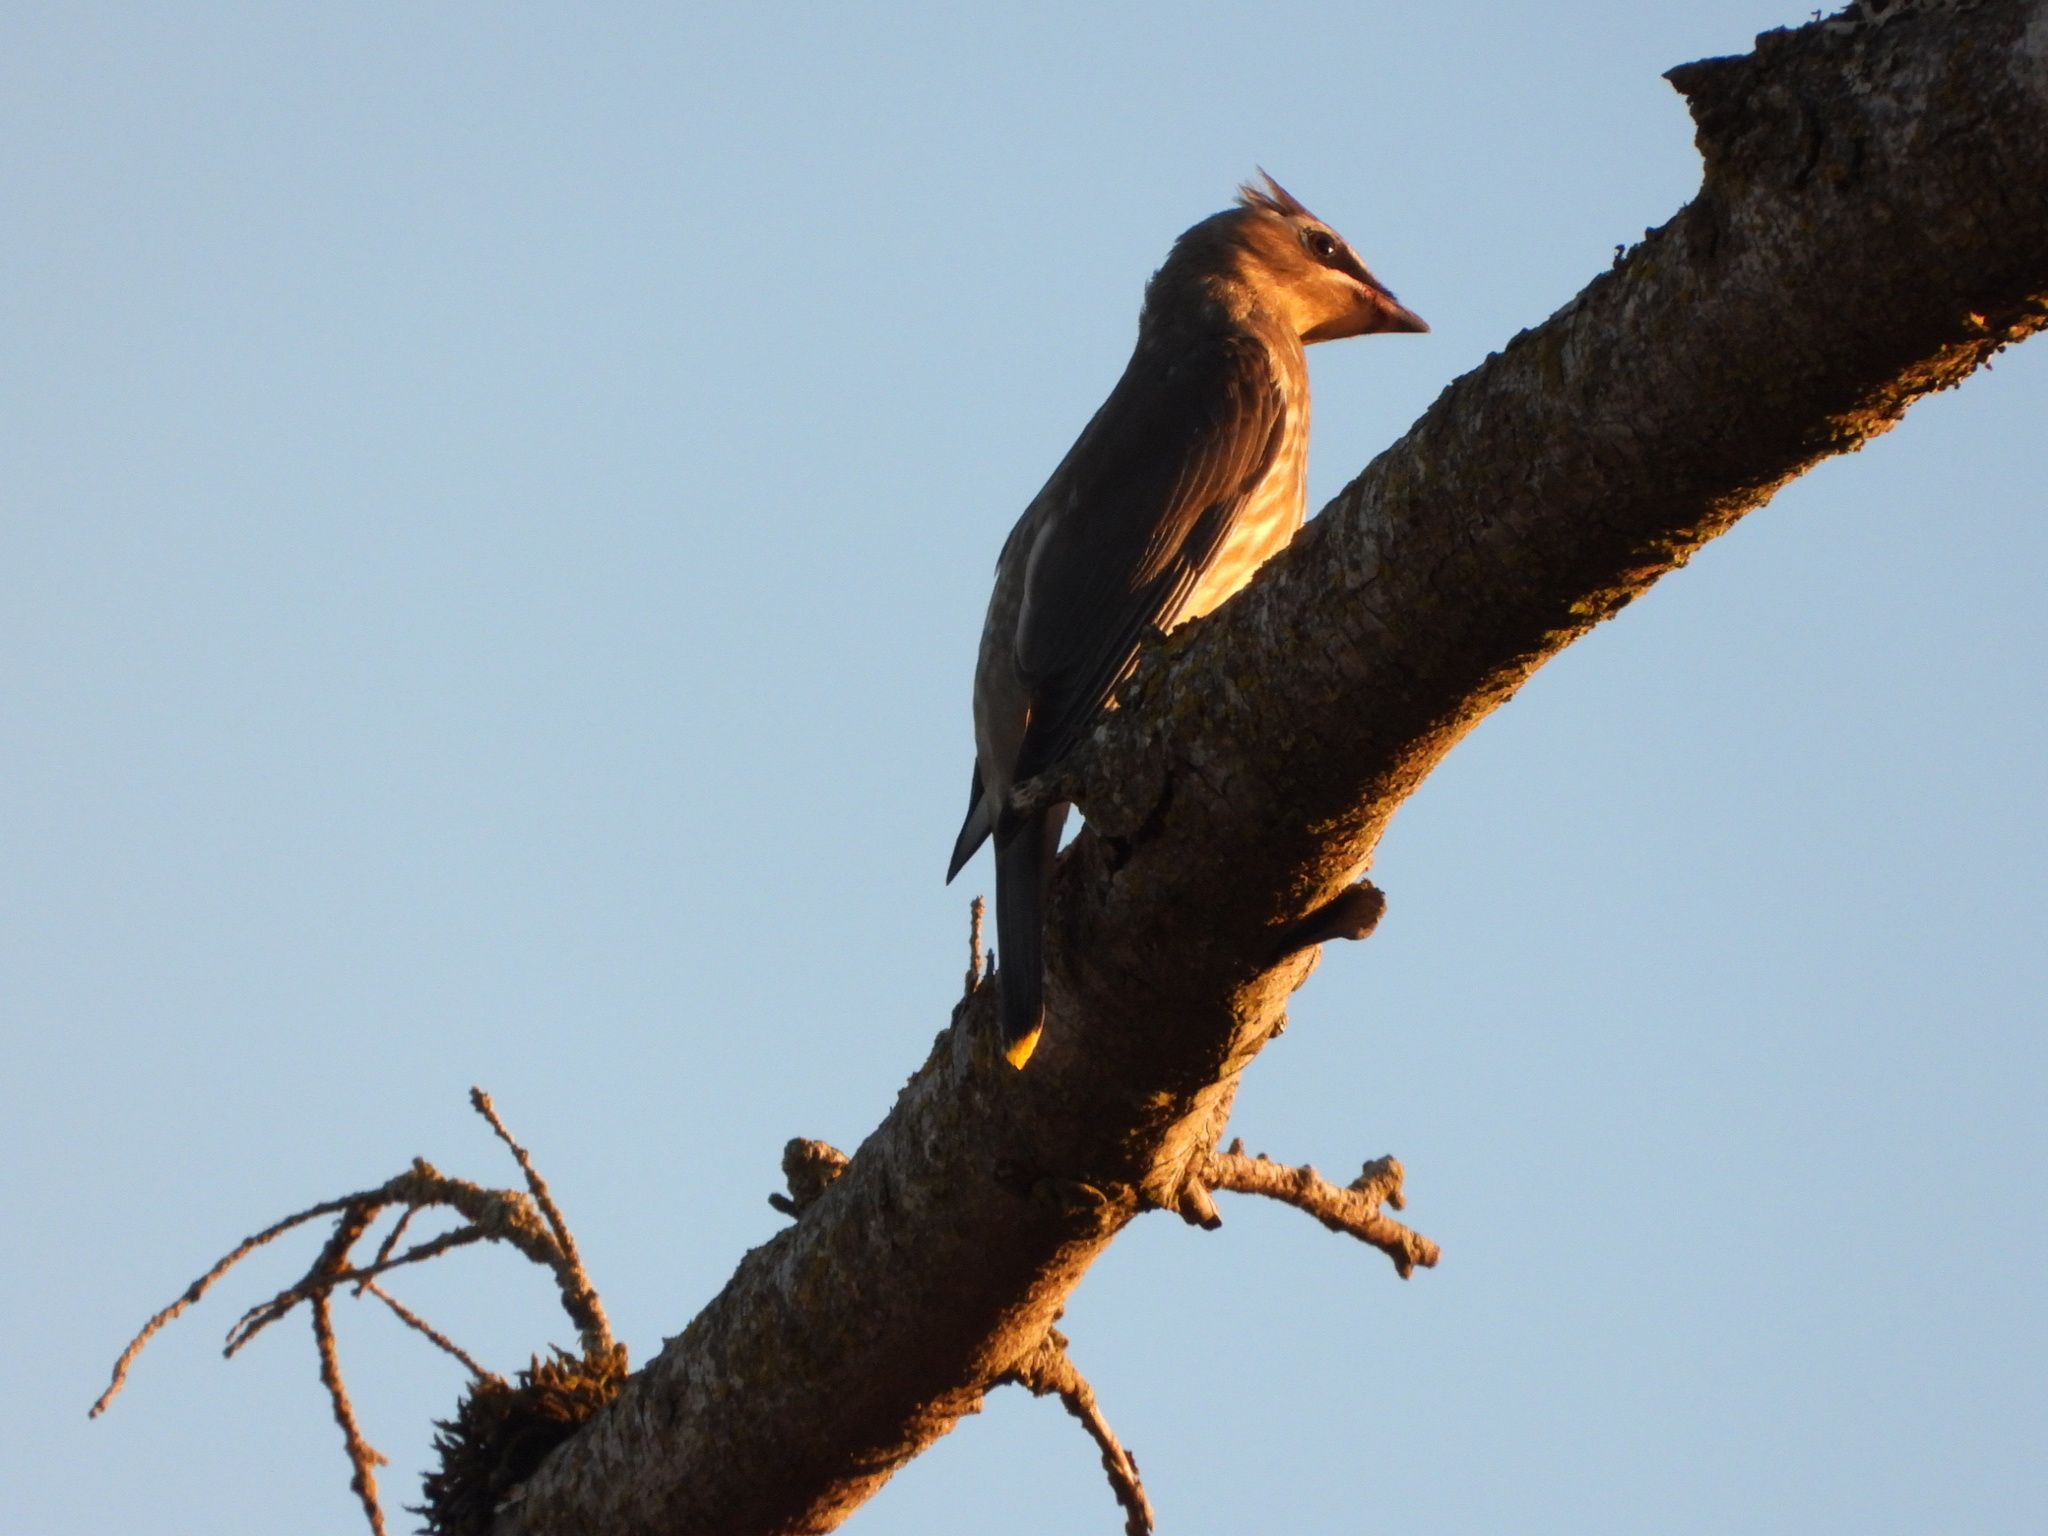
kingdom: Animalia
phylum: Chordata
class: Aves
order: Passeriformes
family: Bombycillidae
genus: Bombycilla
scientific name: Bombycilla cedrorum
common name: Cedar waxwing
